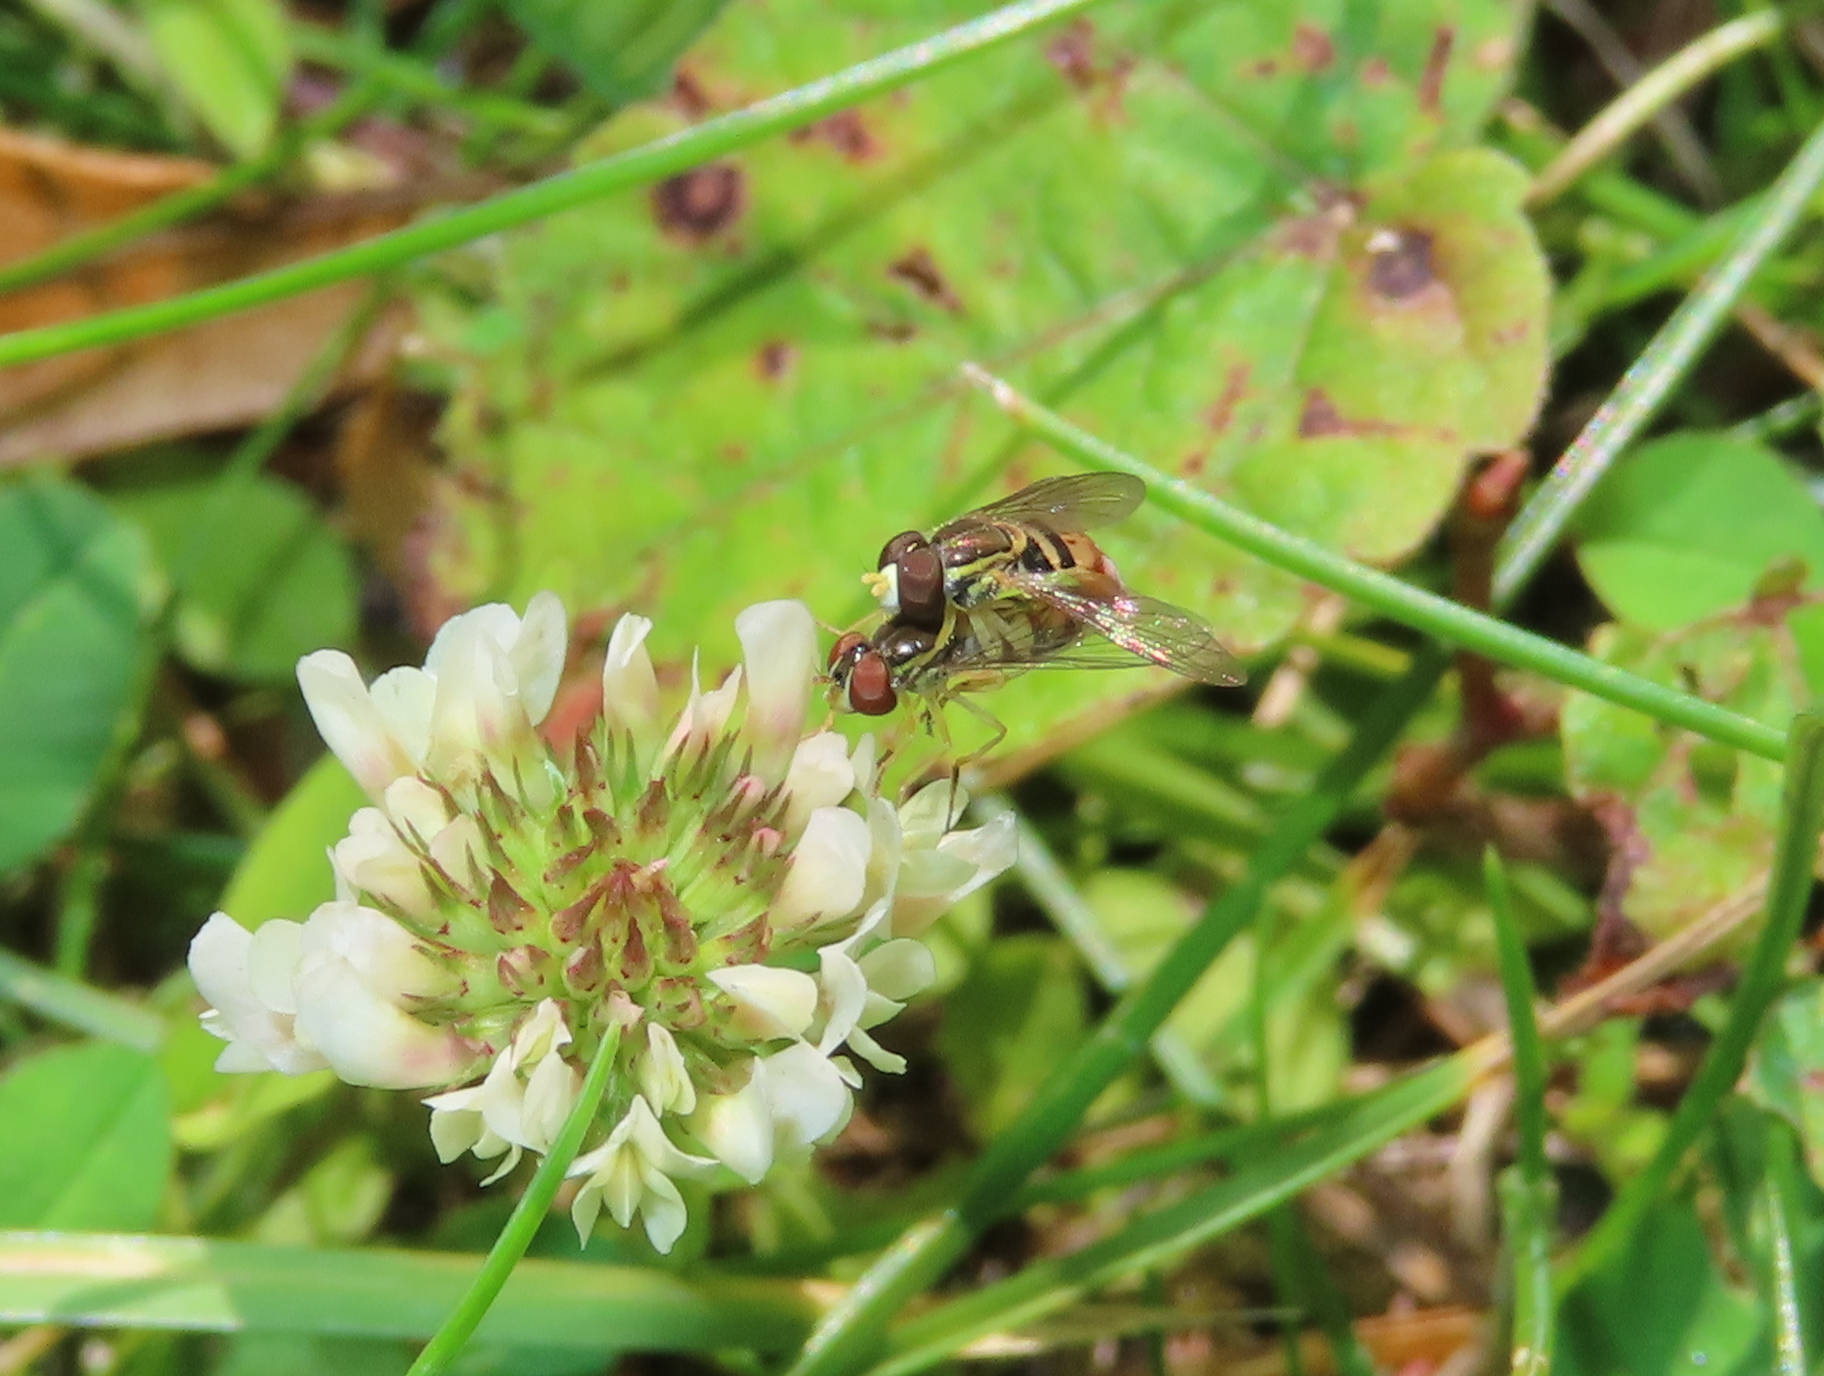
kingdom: Animalia
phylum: Arthropoda
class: Insecta
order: Diptera
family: Syrphidae
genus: Toxomerus
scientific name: Toxomerus marginatus
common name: Syrphid fly
